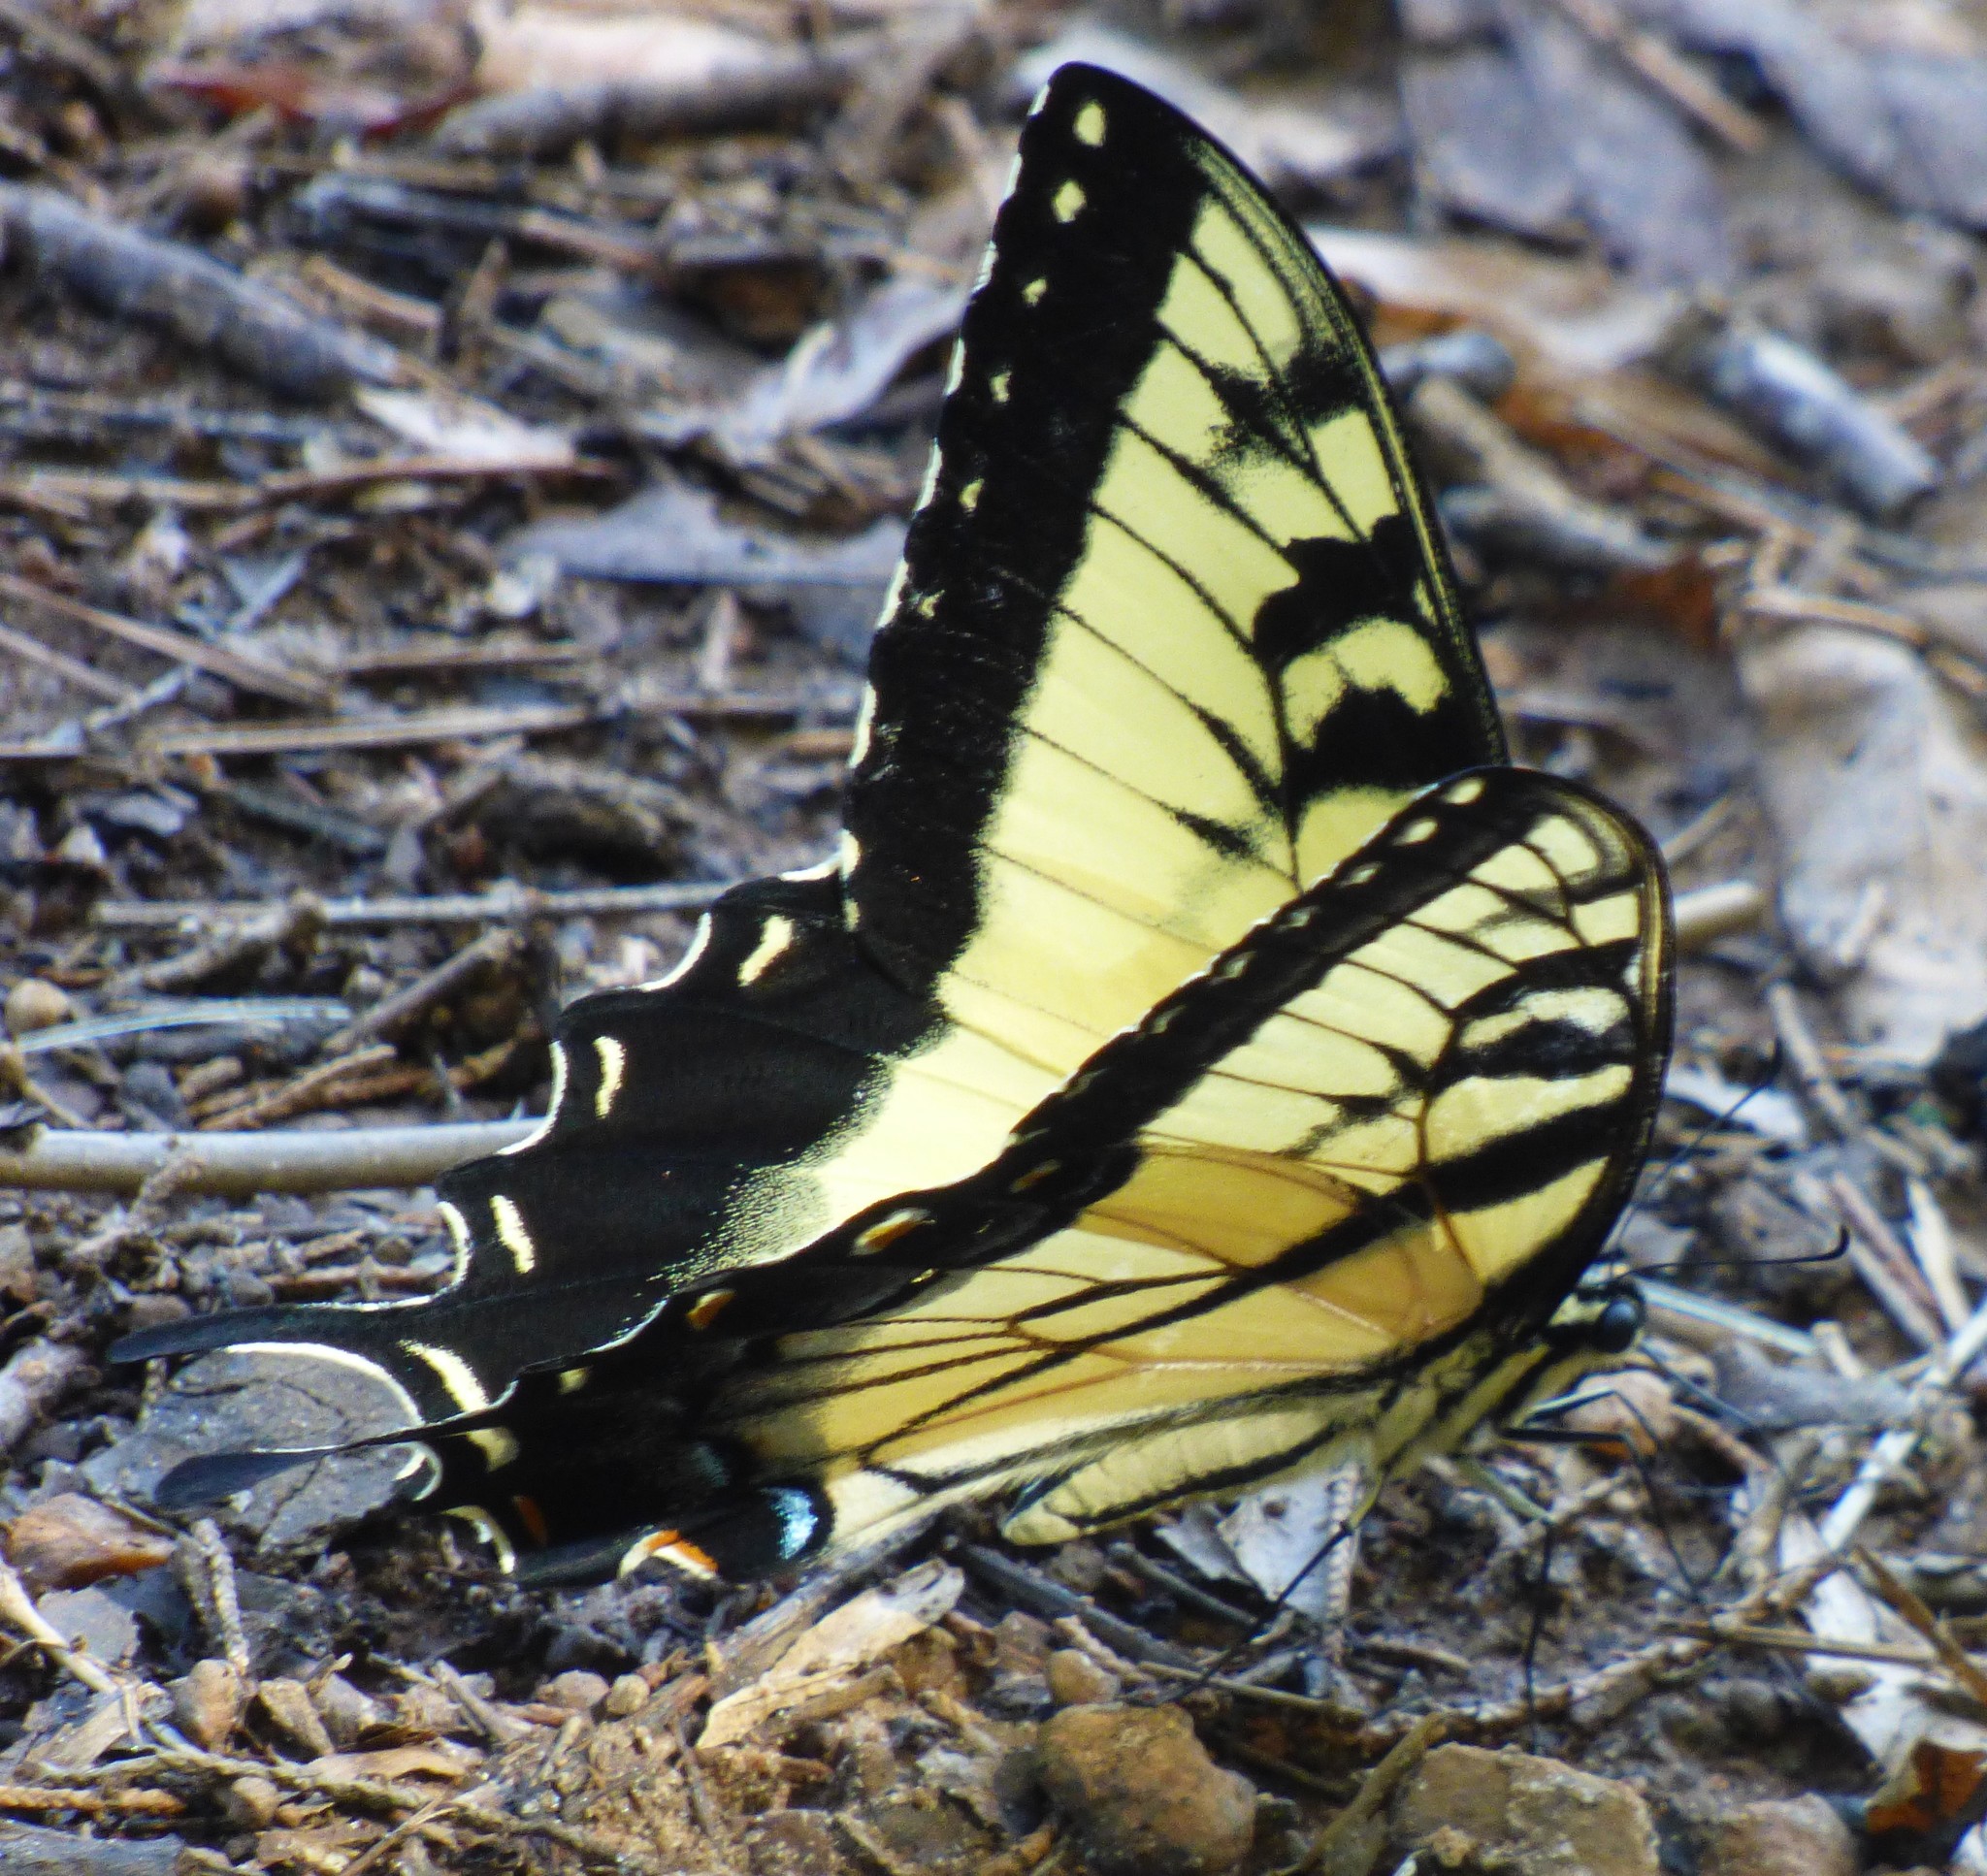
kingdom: Animalia
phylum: Arthropoda
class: Insecta
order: Lepidoptera
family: Papilionidae
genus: Papilio
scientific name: Papilio glaucus
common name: Tiger swallowtail
